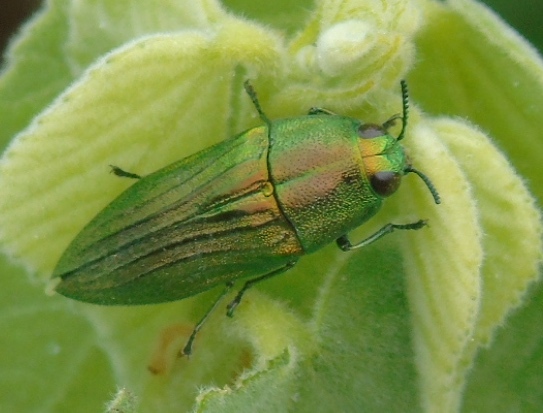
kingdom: Animalia
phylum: Arthropoda
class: Insecta
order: Coleoptera
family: Buprestidae
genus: Agaeocera
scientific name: Agaeocera scintillans
